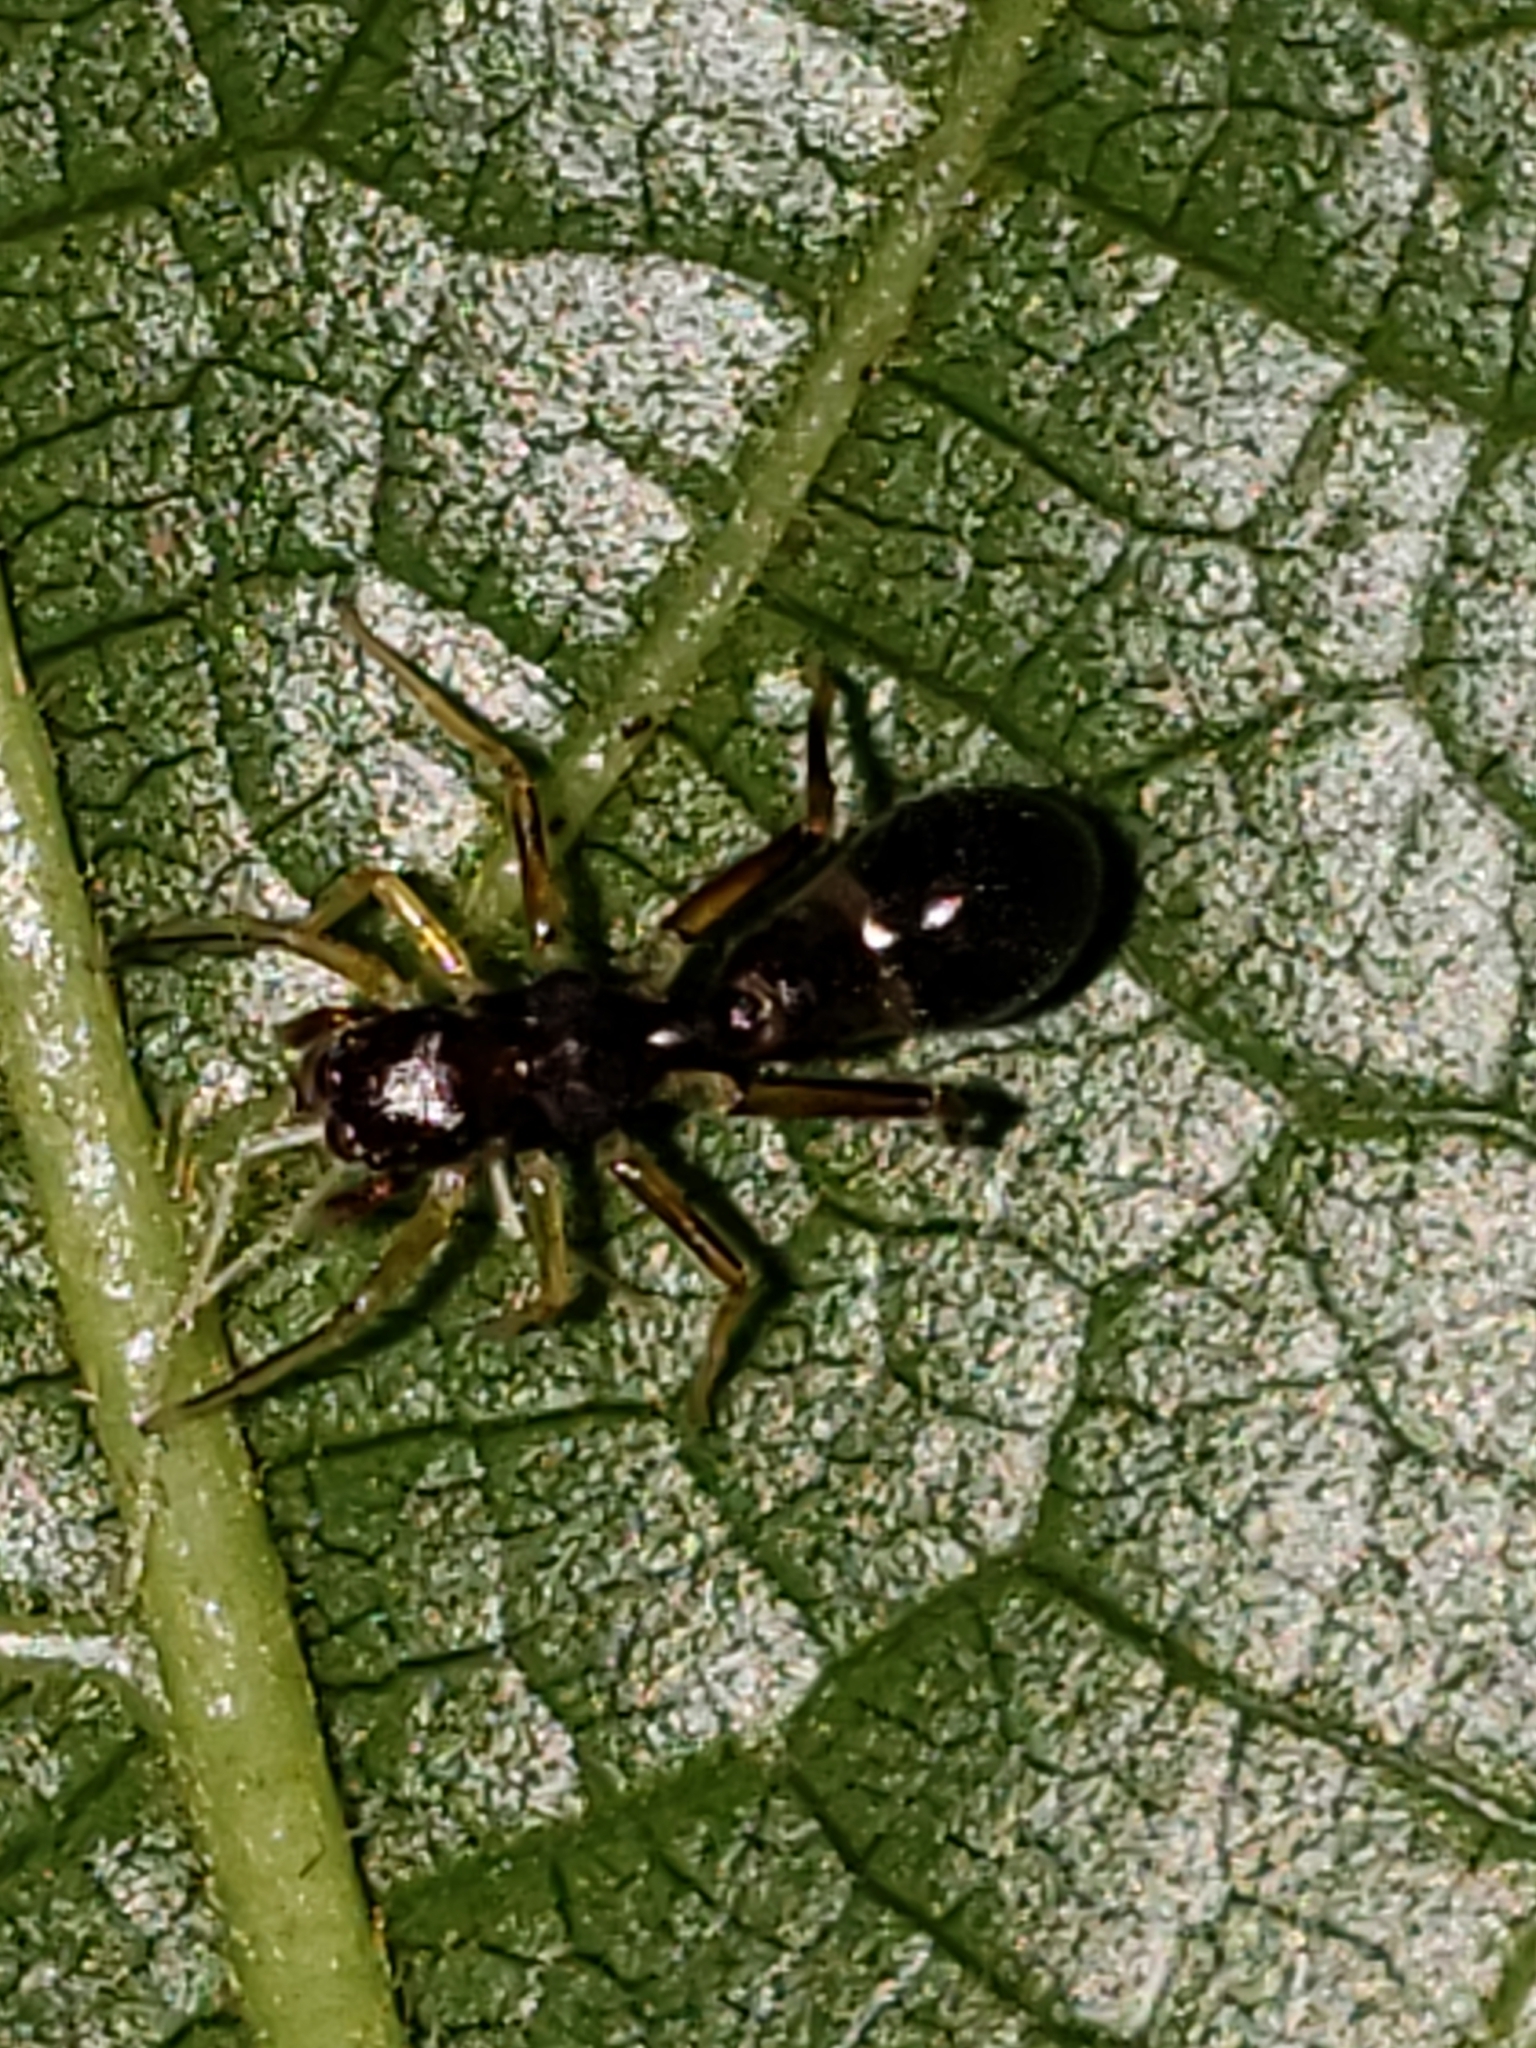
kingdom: Animalia
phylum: Arthropoda
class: Arachnida
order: Araneae
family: Salticidae
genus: Synemosyna
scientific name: Synemosyna formica
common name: Slender ant-mimic jumping spider
